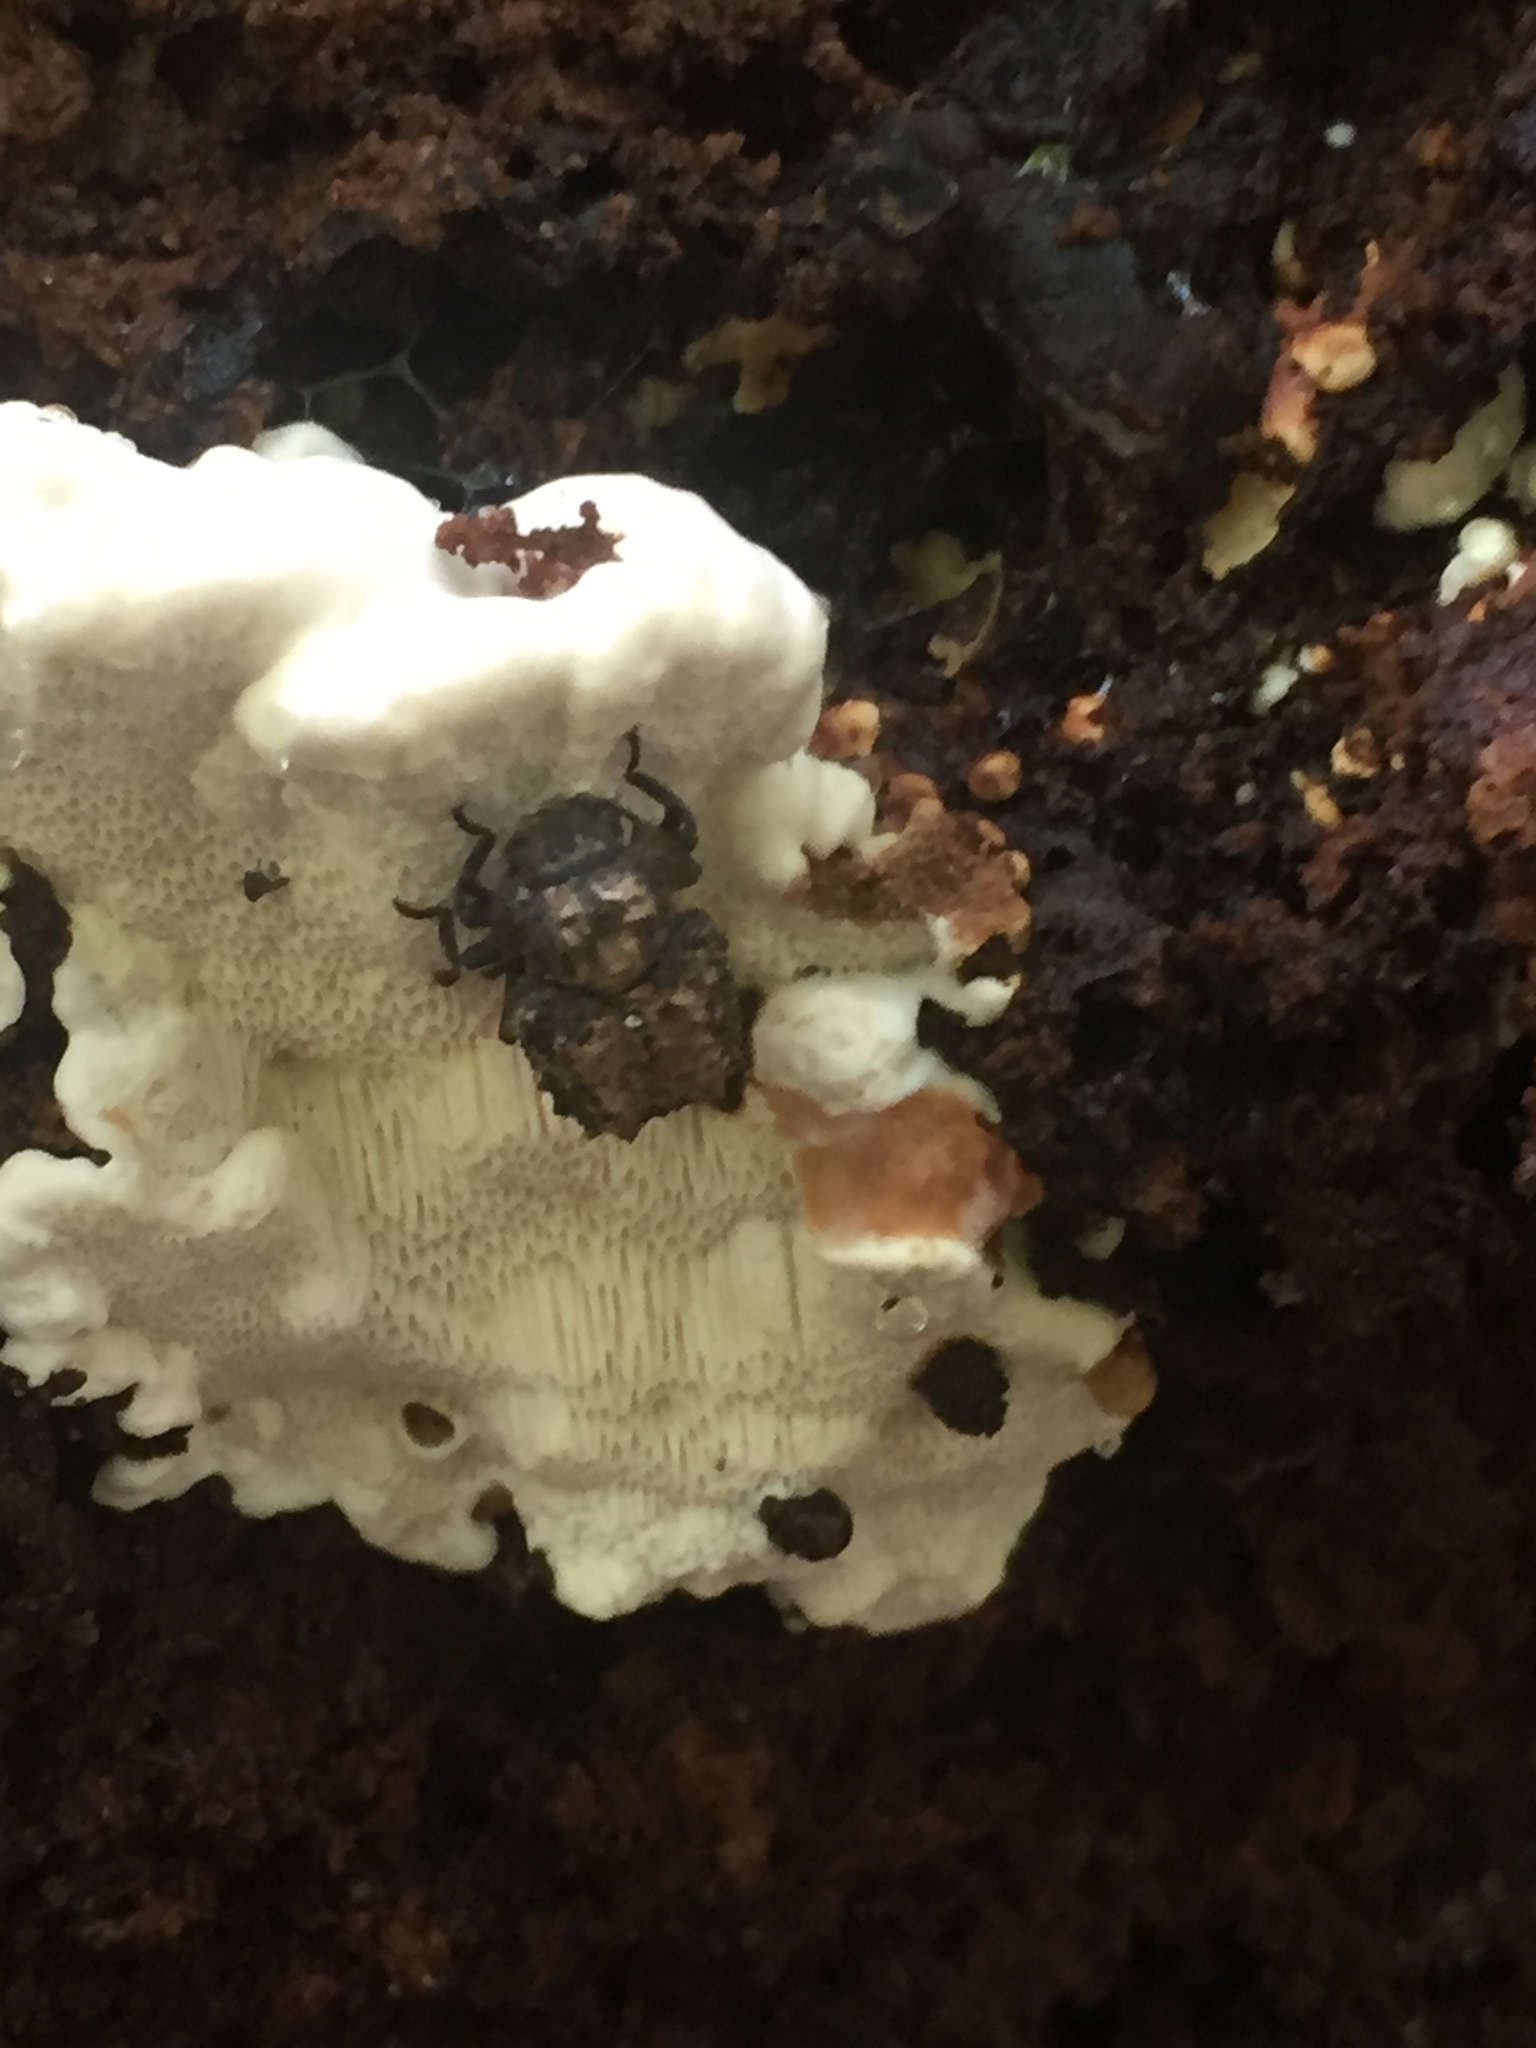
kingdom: Animalia
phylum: Arthropoda
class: Insecta
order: Coleoptera
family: Tenebrionidae
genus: Gnatocerus
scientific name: Gnatocerus cornutus
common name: Broad-horned flour beetle
